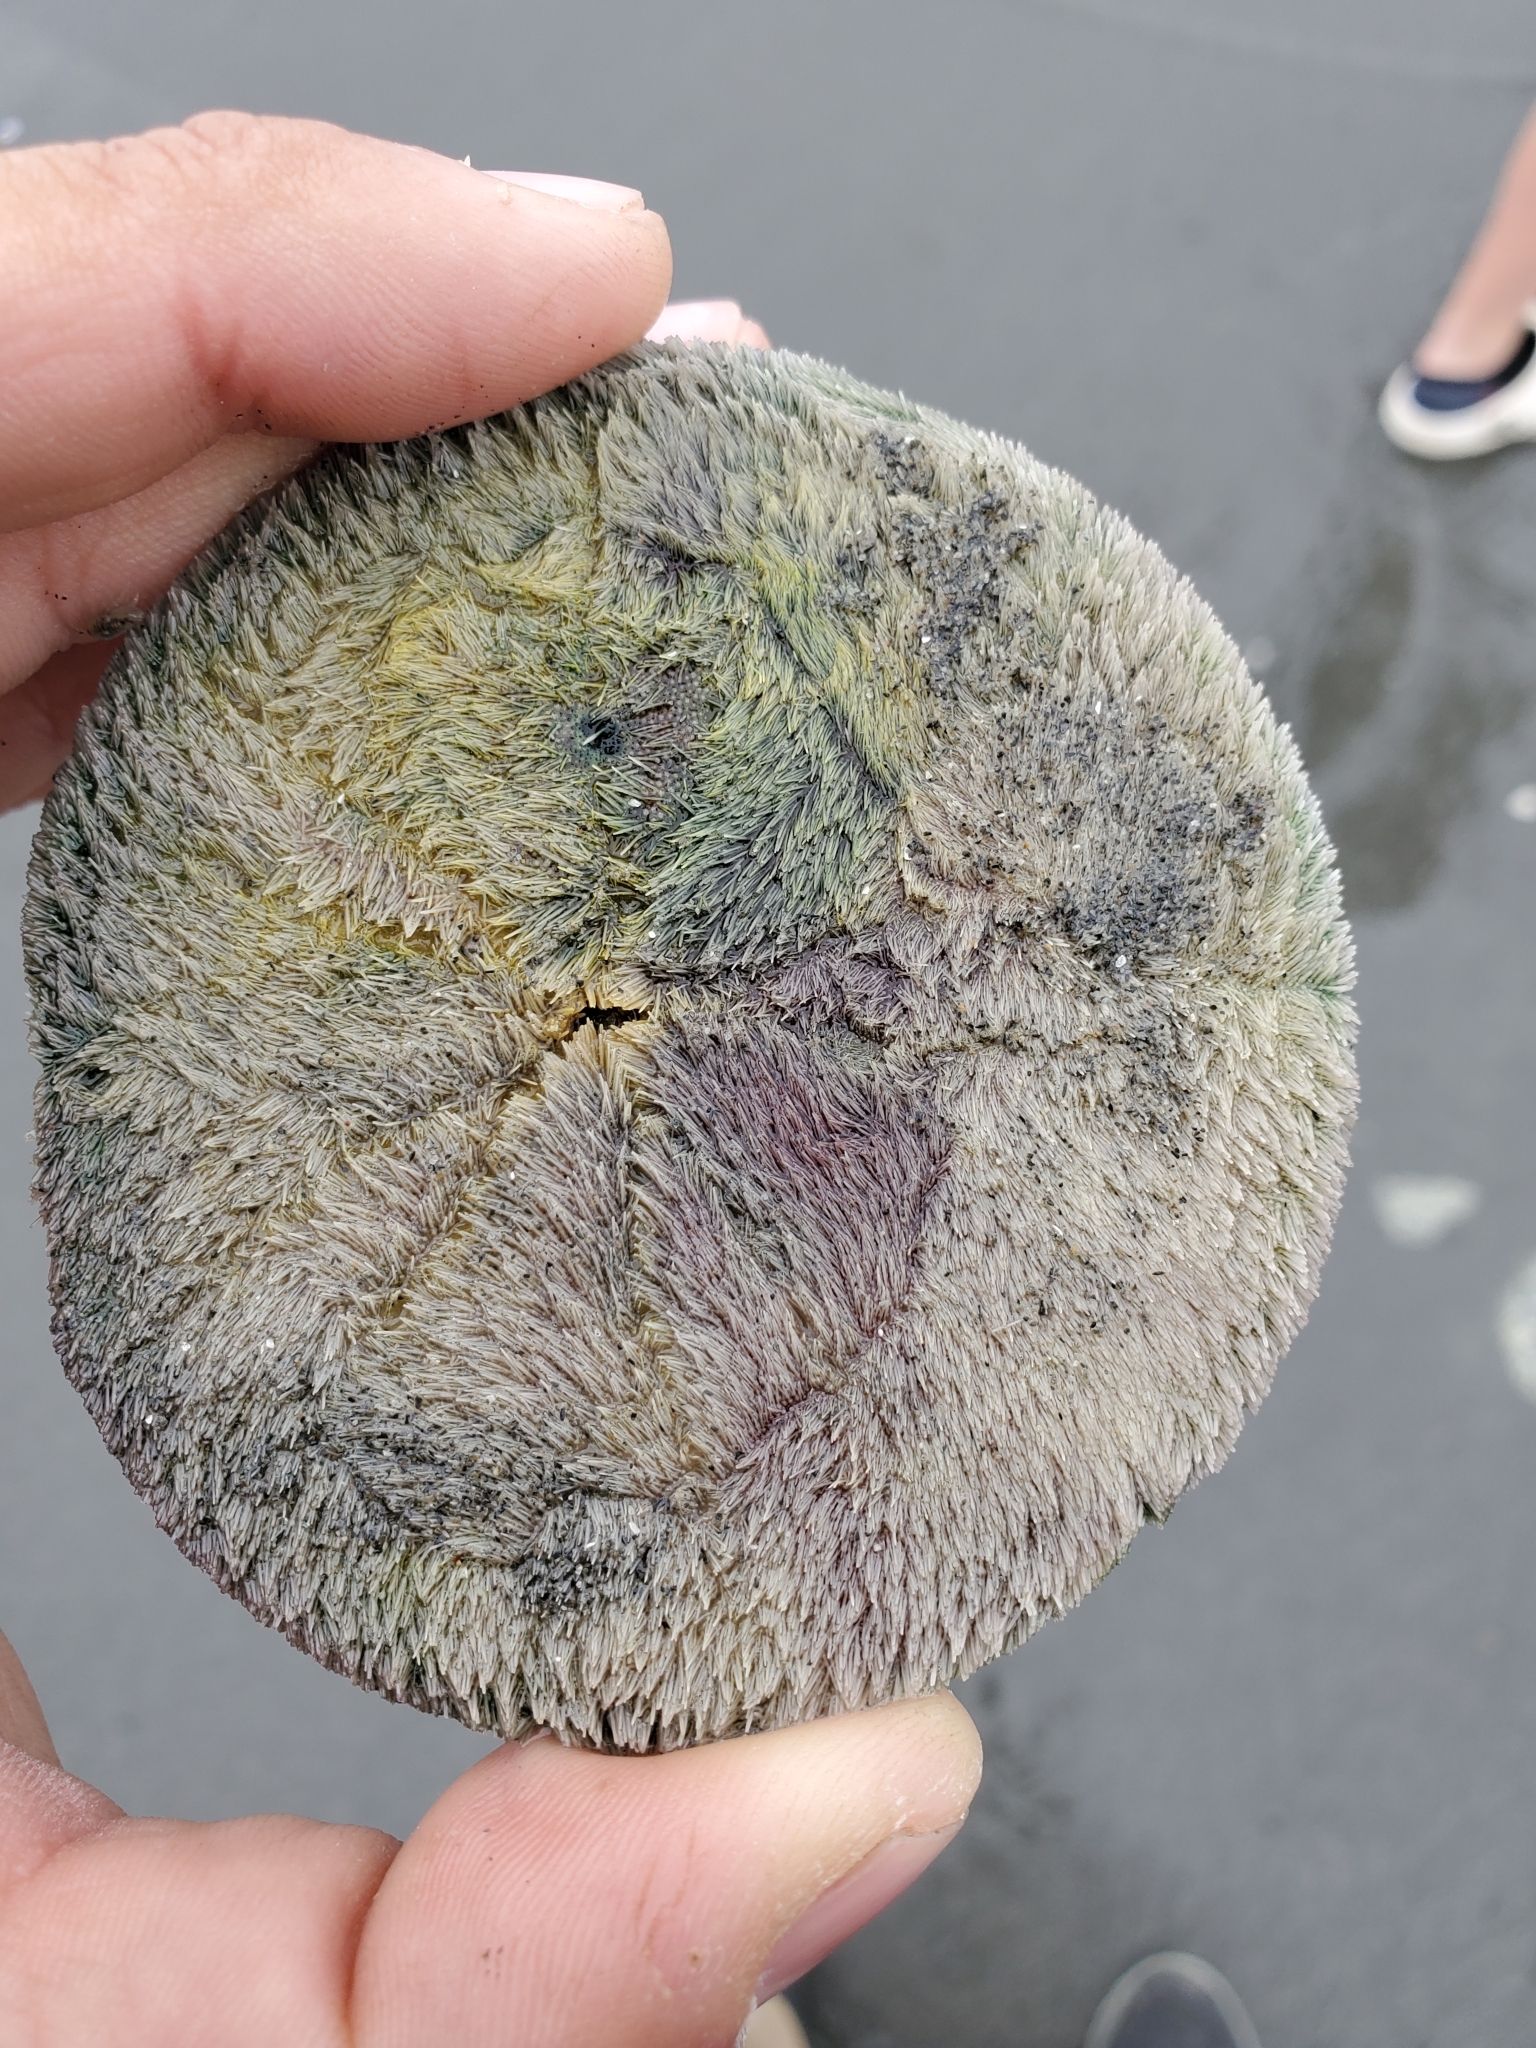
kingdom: Animalia
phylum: Echinodermata
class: Echinoidea
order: Echinolampadacea
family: Dendrasteridae
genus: Dendraster
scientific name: Dendraster excentricus
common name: Eccentric sand dollar sea urchin
